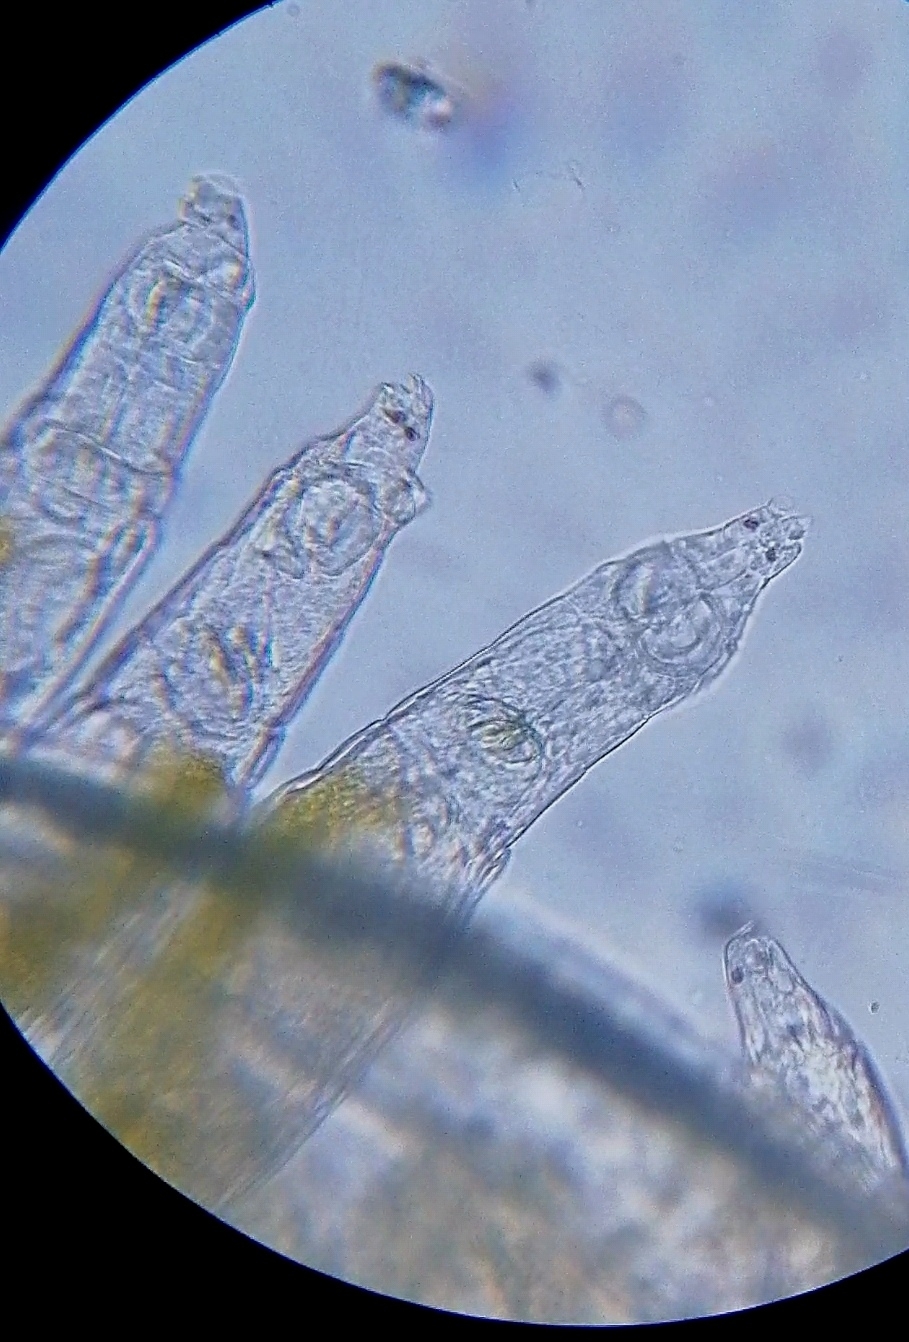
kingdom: Animalia
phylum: Rotifera
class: Eurotatoria
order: Bdelloidea
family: Philodinidae
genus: Rotaria
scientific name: Rotaria rotatoria
